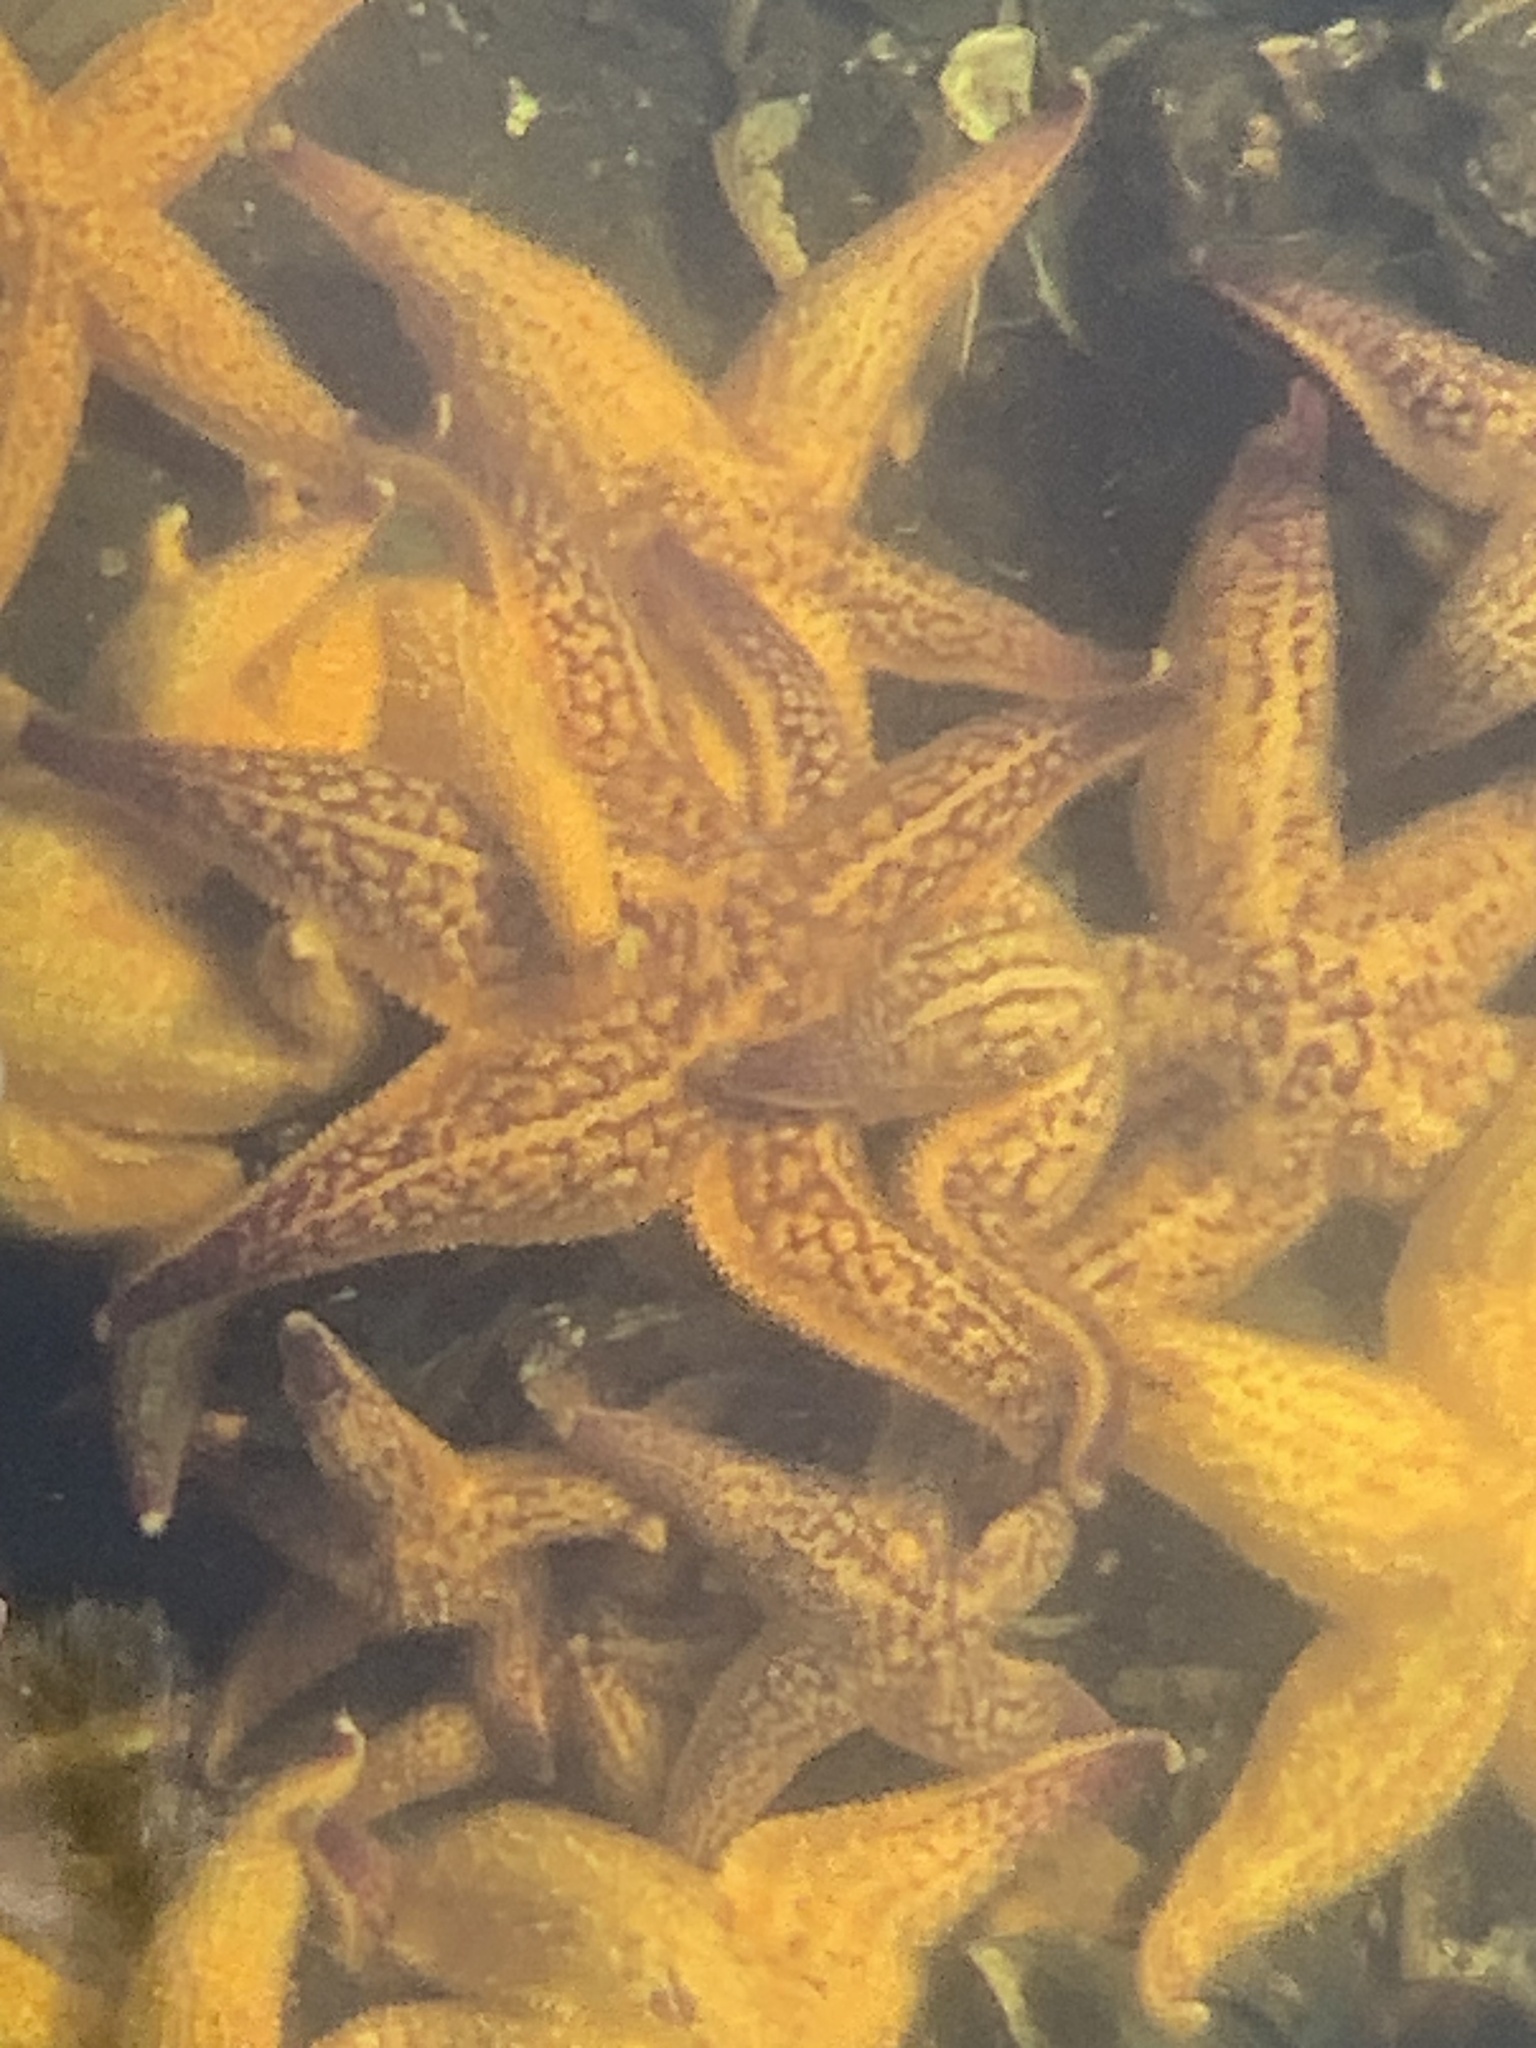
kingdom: Animalia
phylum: Echinodermata
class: Asteroidea
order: Forcipulatida
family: Asteriidae
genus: Asterias
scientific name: Asterias amurensis
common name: Flat-bottomed star
